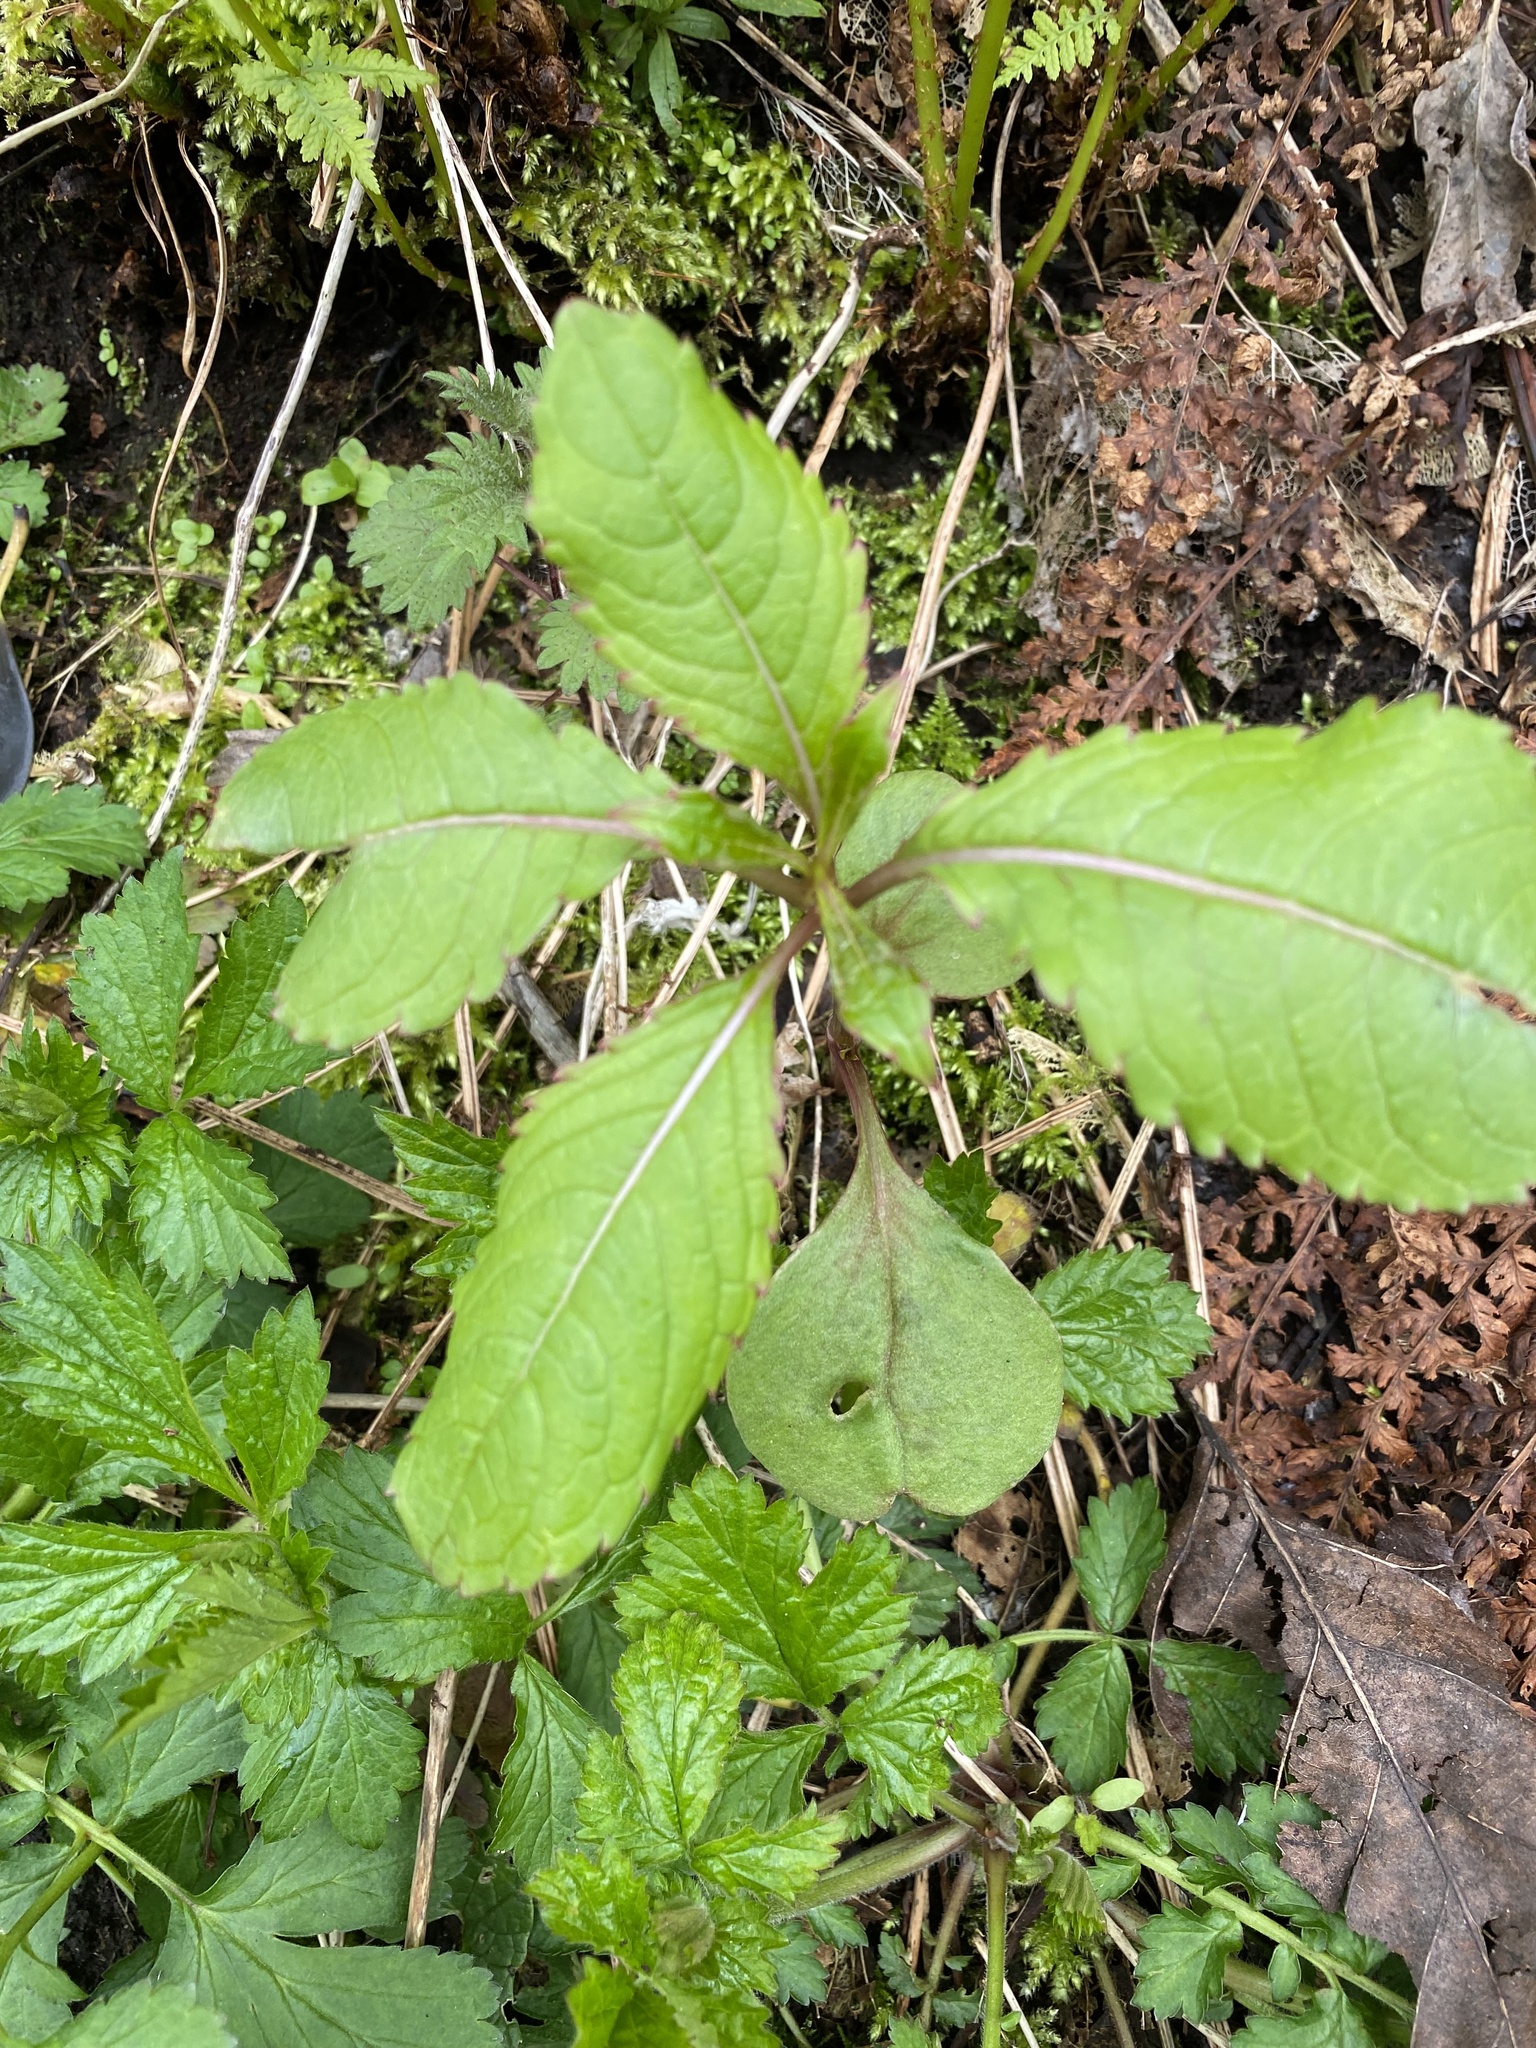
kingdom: Plantae
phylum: Tracheophyta
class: Magnoliopsida
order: Ericales
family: Balsaminaceae
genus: Impatiens
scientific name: Impatiens glandulifera
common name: Himalayan balsam
